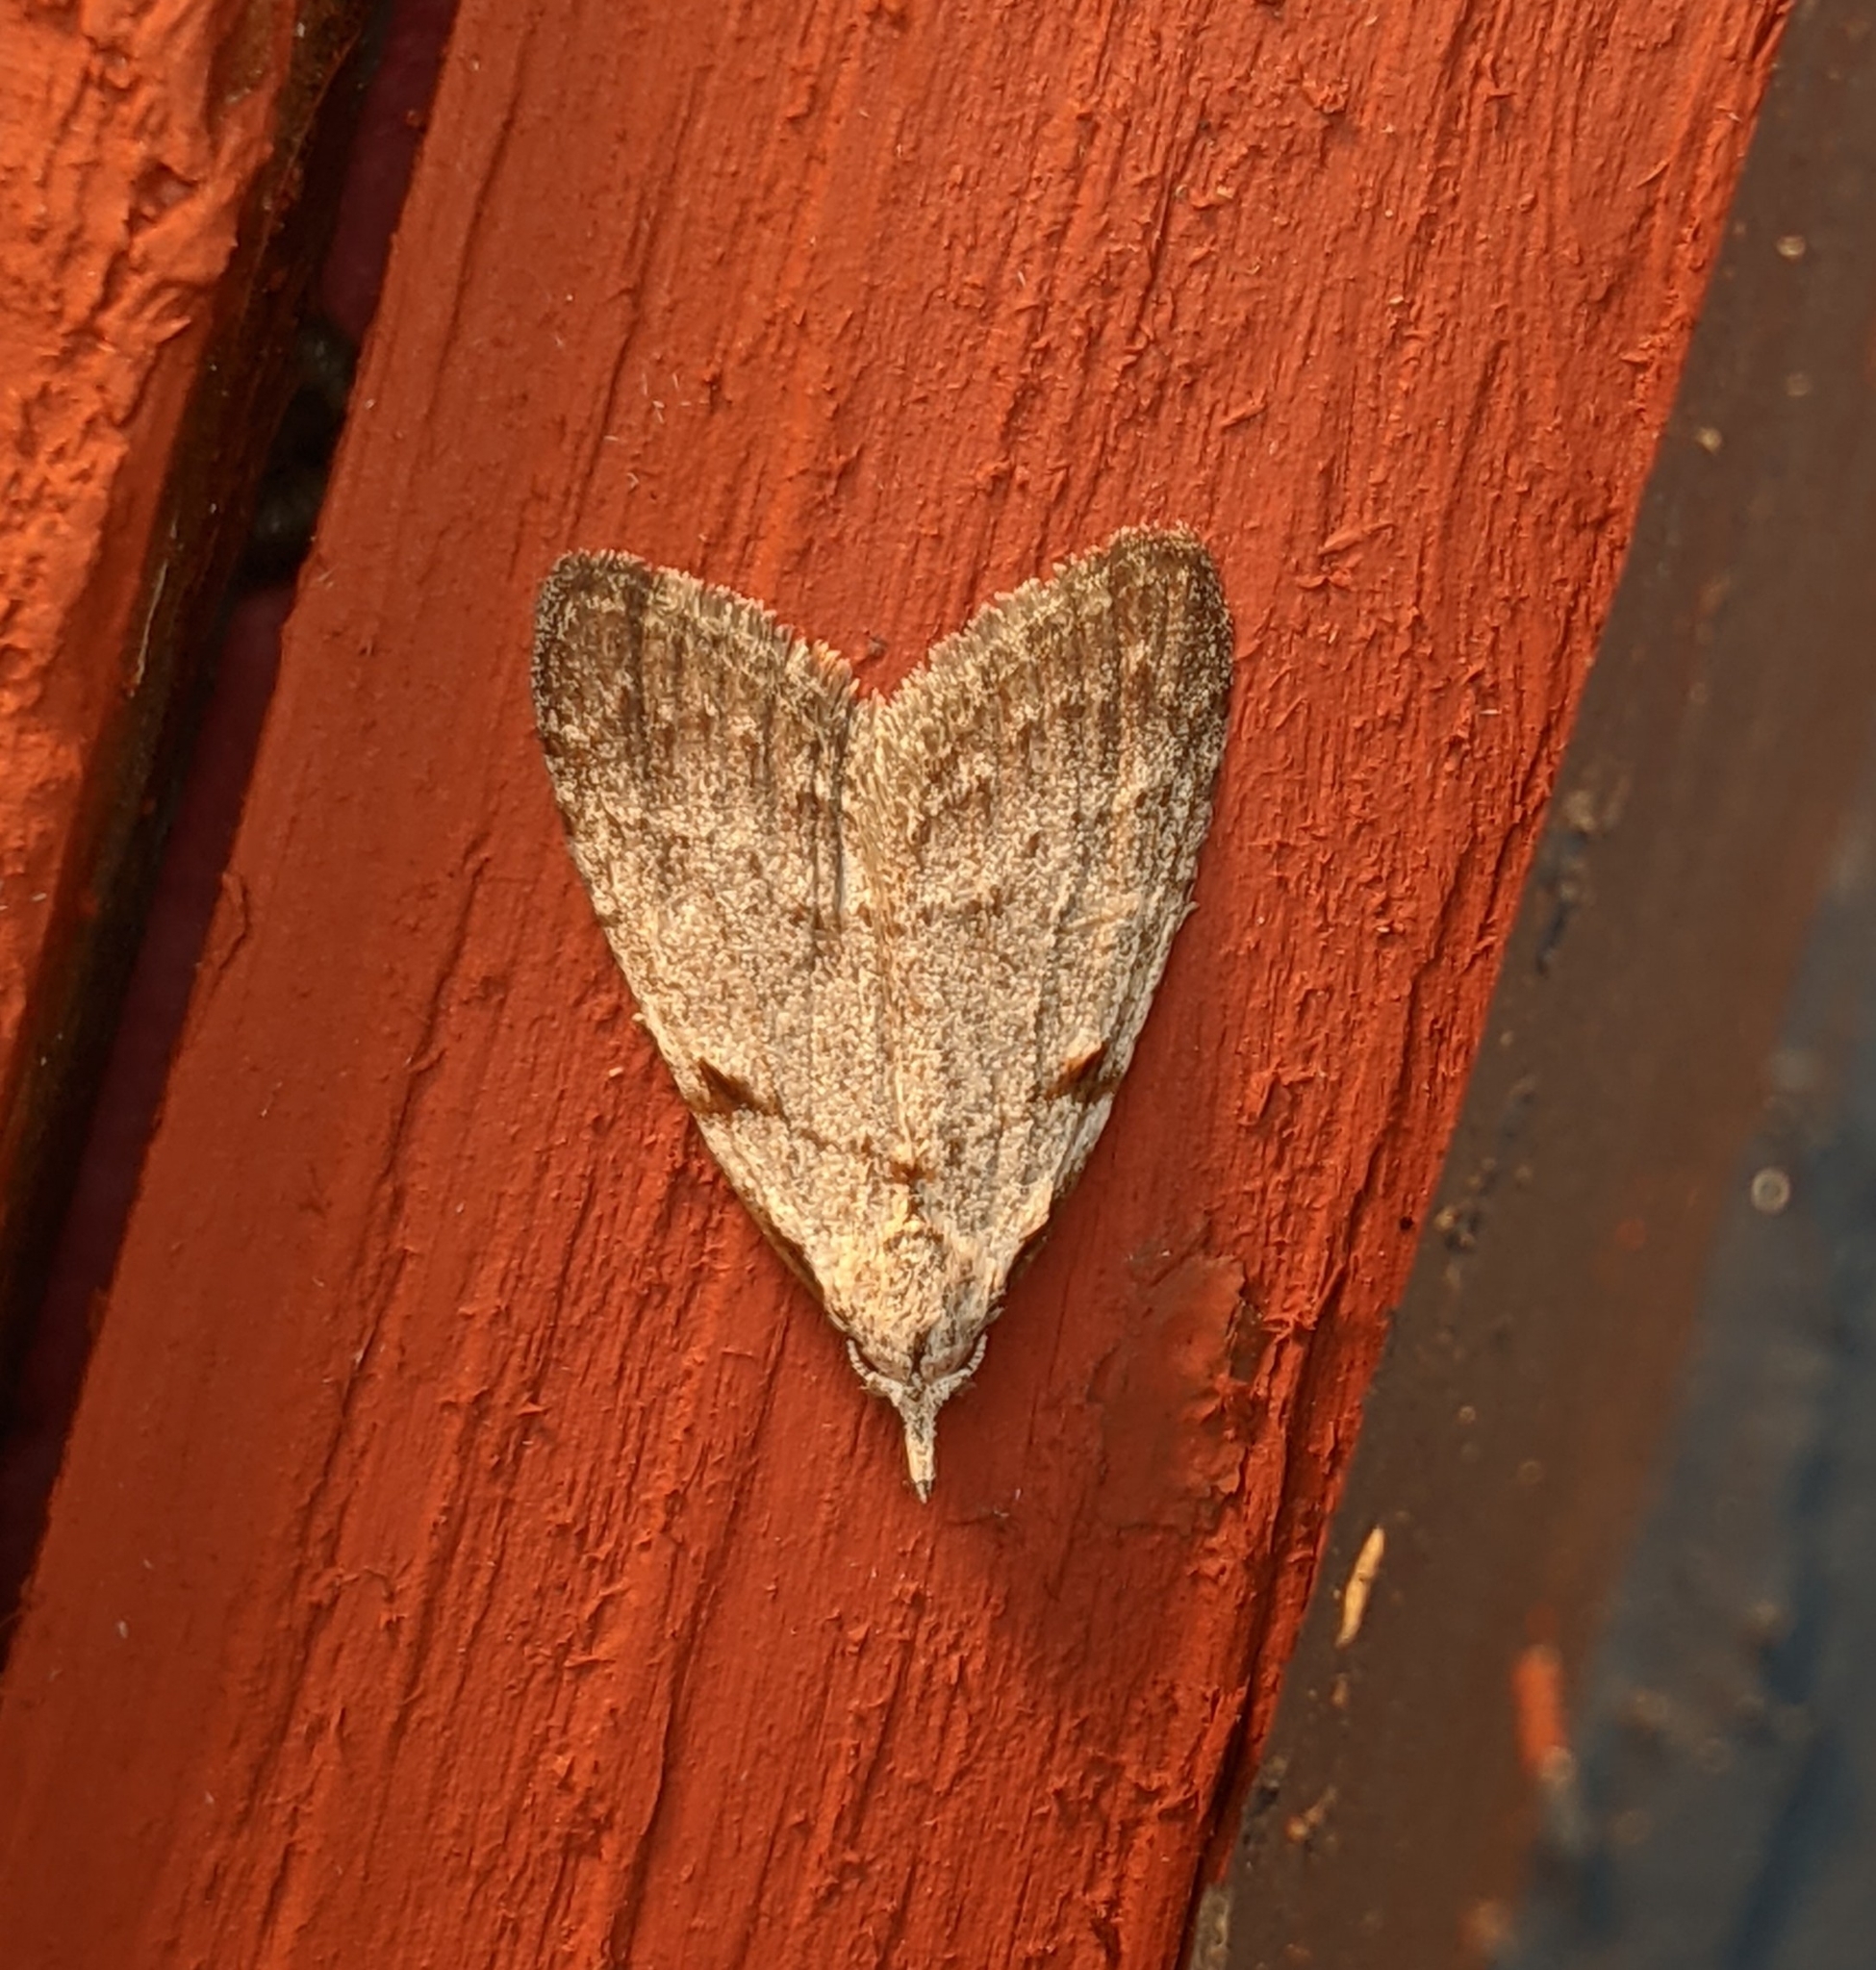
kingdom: Animalia
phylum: Arthropoda
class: Insecta
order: Lepidoptera
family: Nolidae
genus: Nola
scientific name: Nola minna
